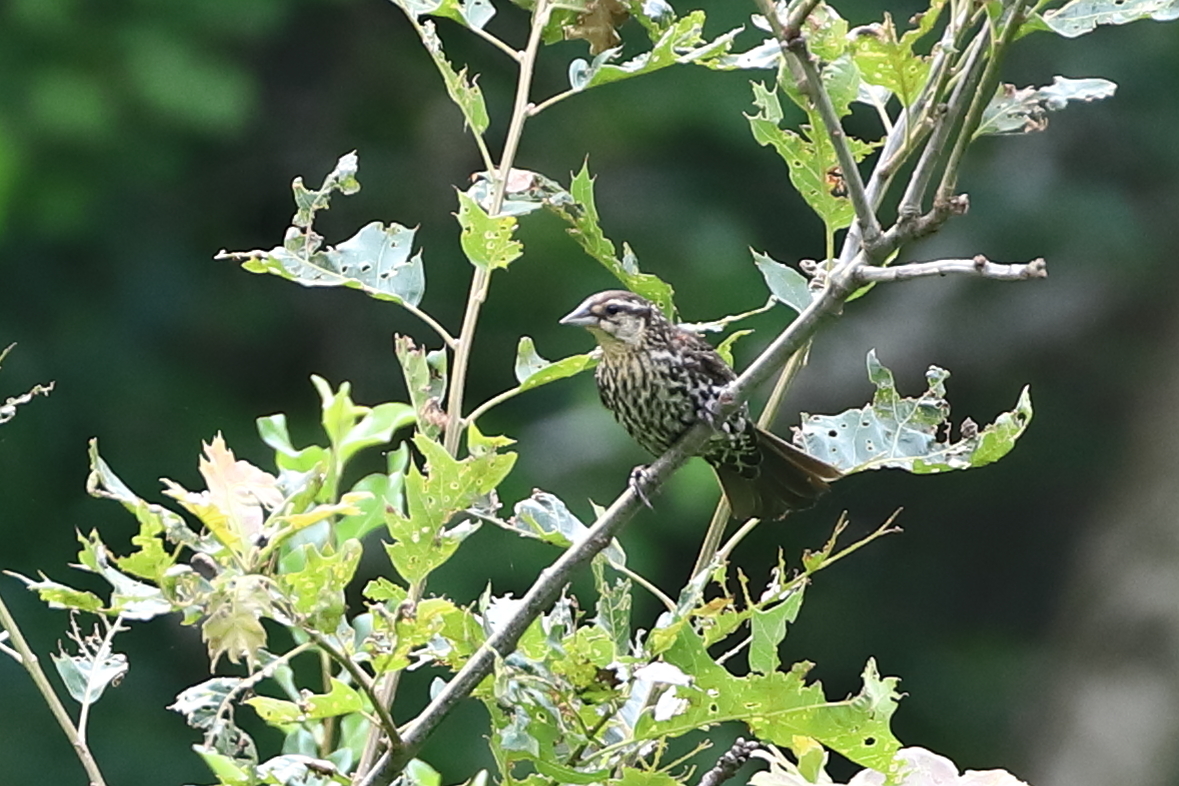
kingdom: Animalia
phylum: Chordata
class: Aves
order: Passeriformes
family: Icteridae
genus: Agelaius
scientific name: Agelaius phoeniceus
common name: Red-winged blackbird
